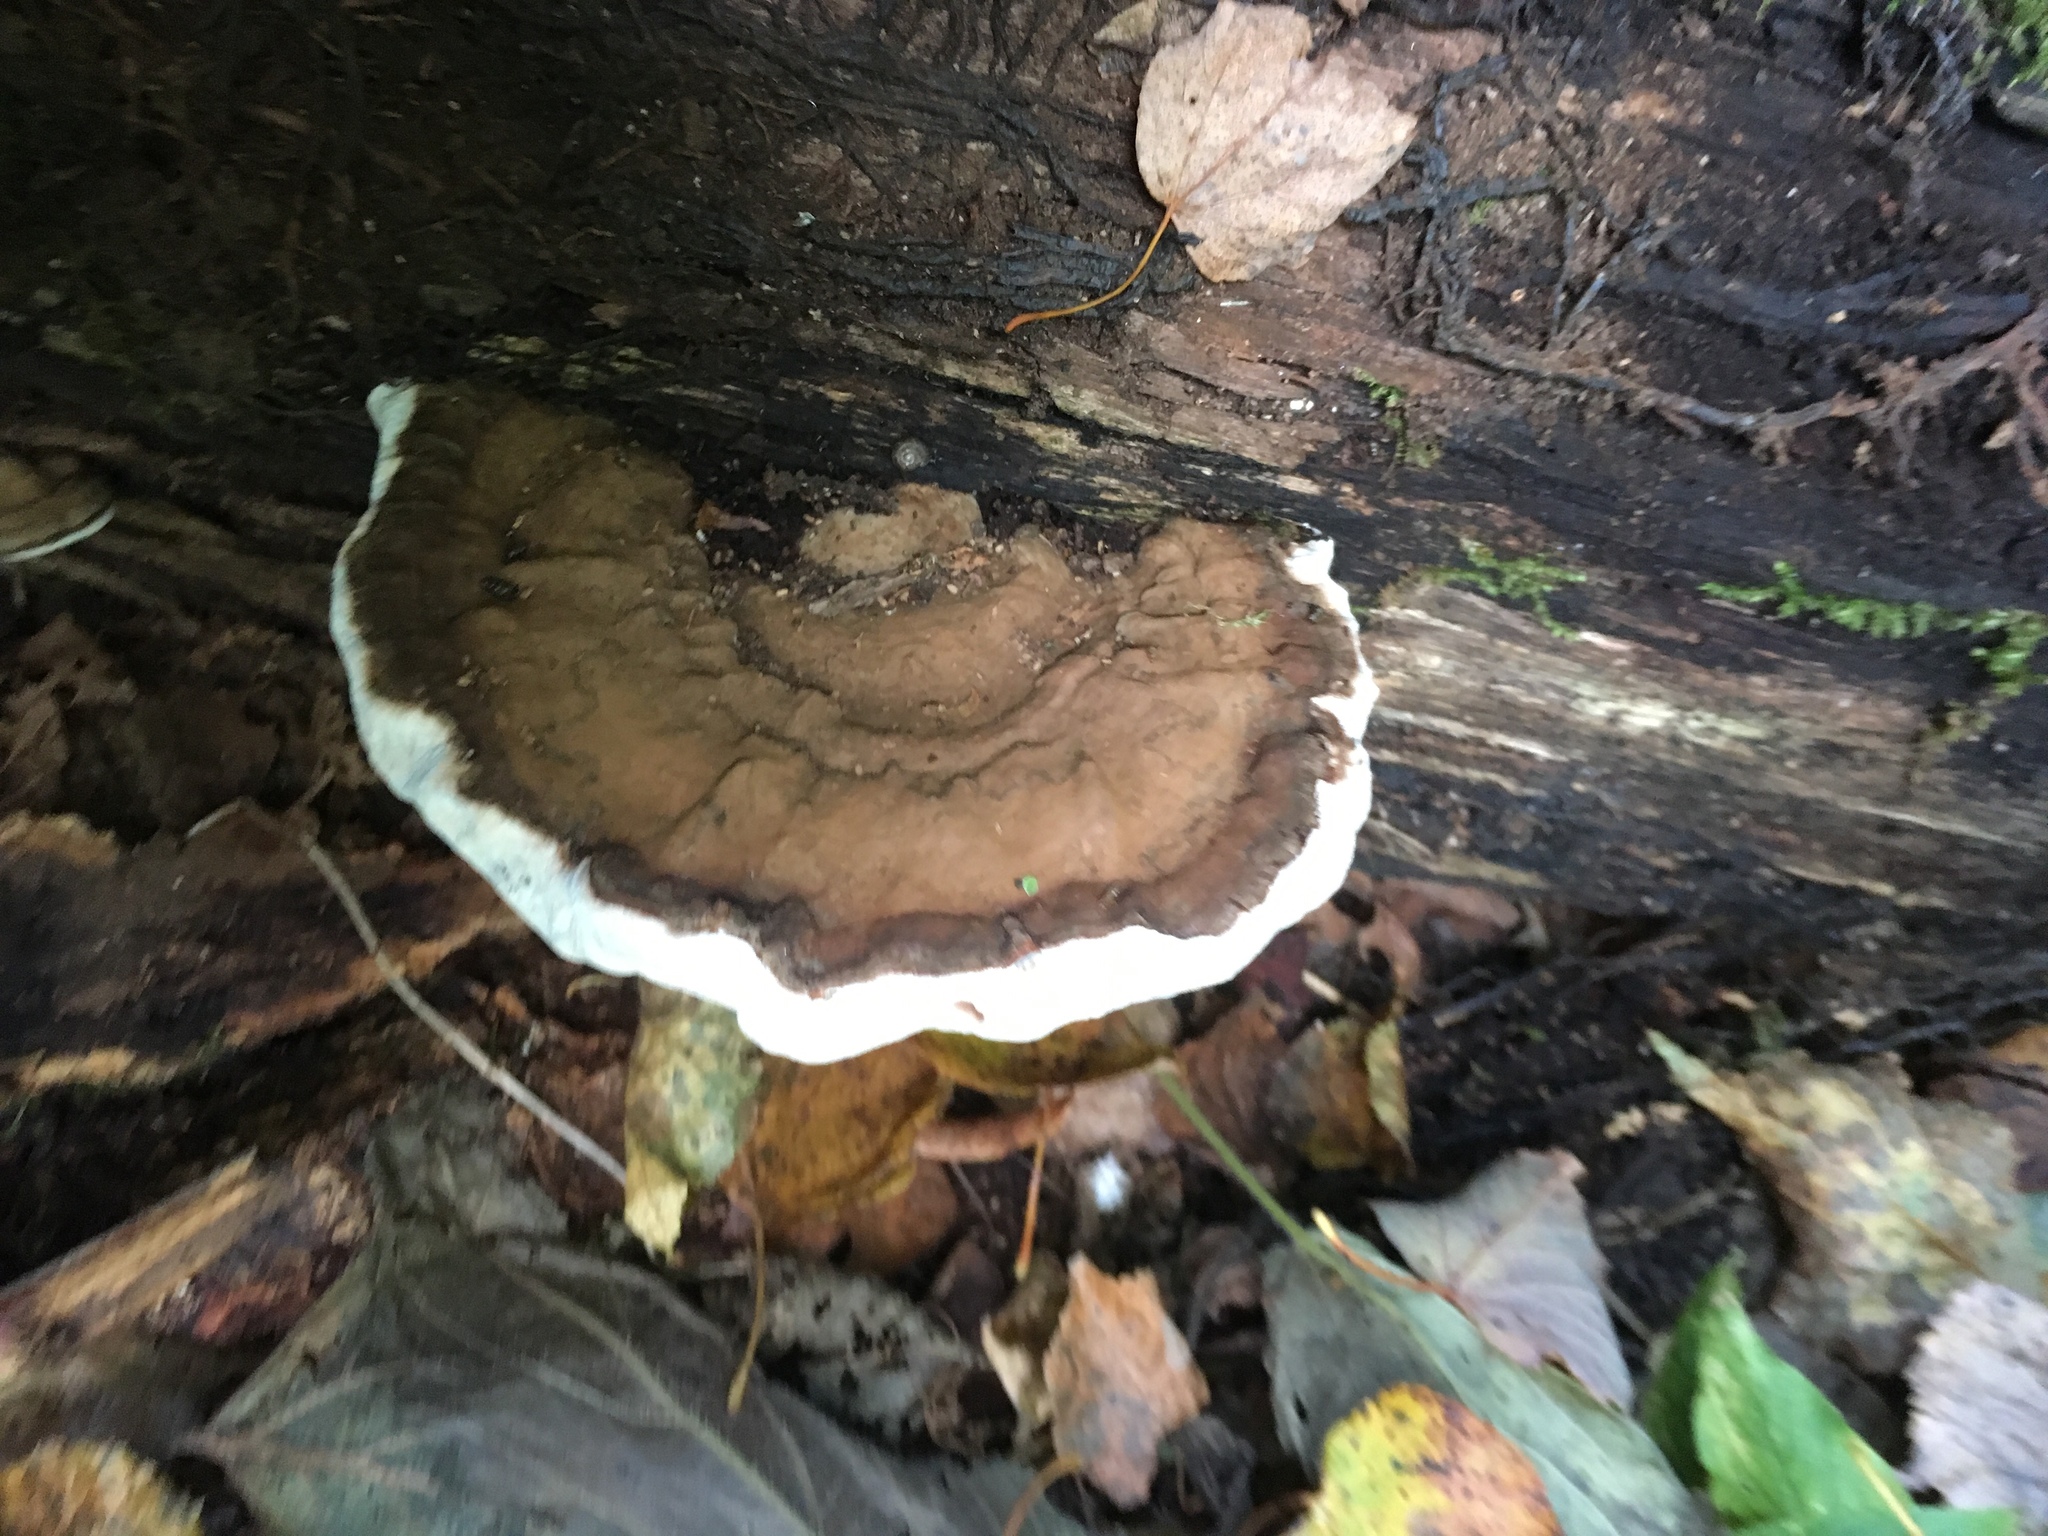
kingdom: Fungi
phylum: Basidiomycota
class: Agaricomycetes
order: Polyporales
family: Polyporaceae
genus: Ganoderma
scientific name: Ganoderma applanatum
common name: Artist's bracket
